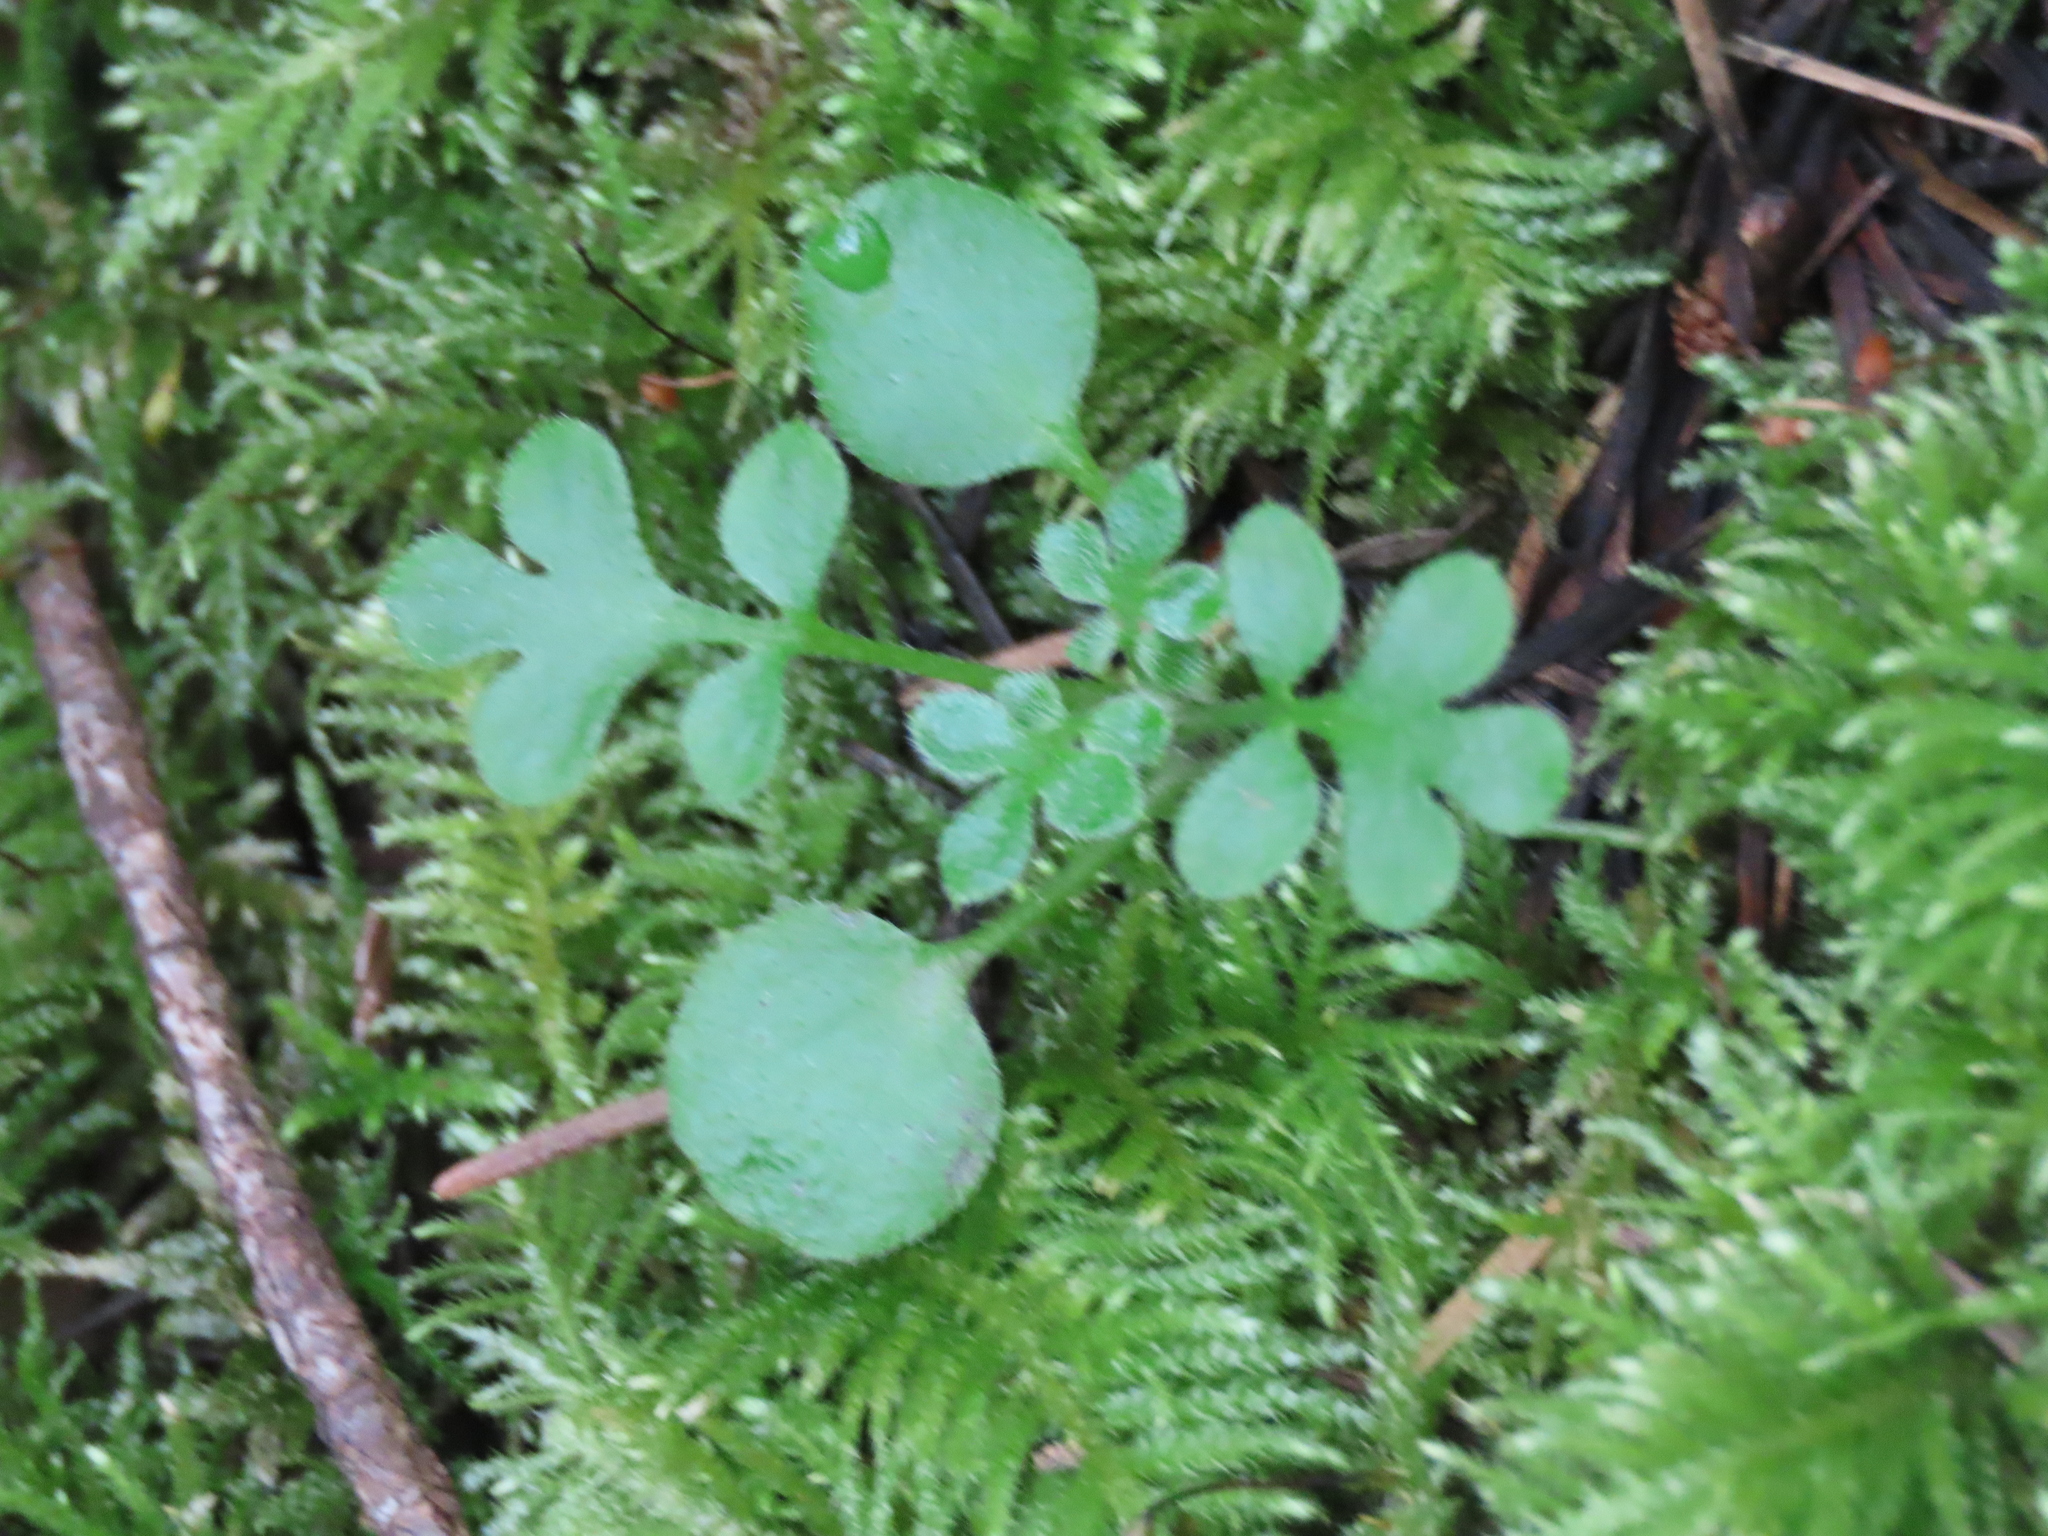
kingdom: Plantae
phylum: Tracheophyta
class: Magnoliopsida
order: Boraginales
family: Hydrophyllaceae
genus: Nemophila
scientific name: Nemophila parviflora
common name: Small-flowered baby-blue-eyes
